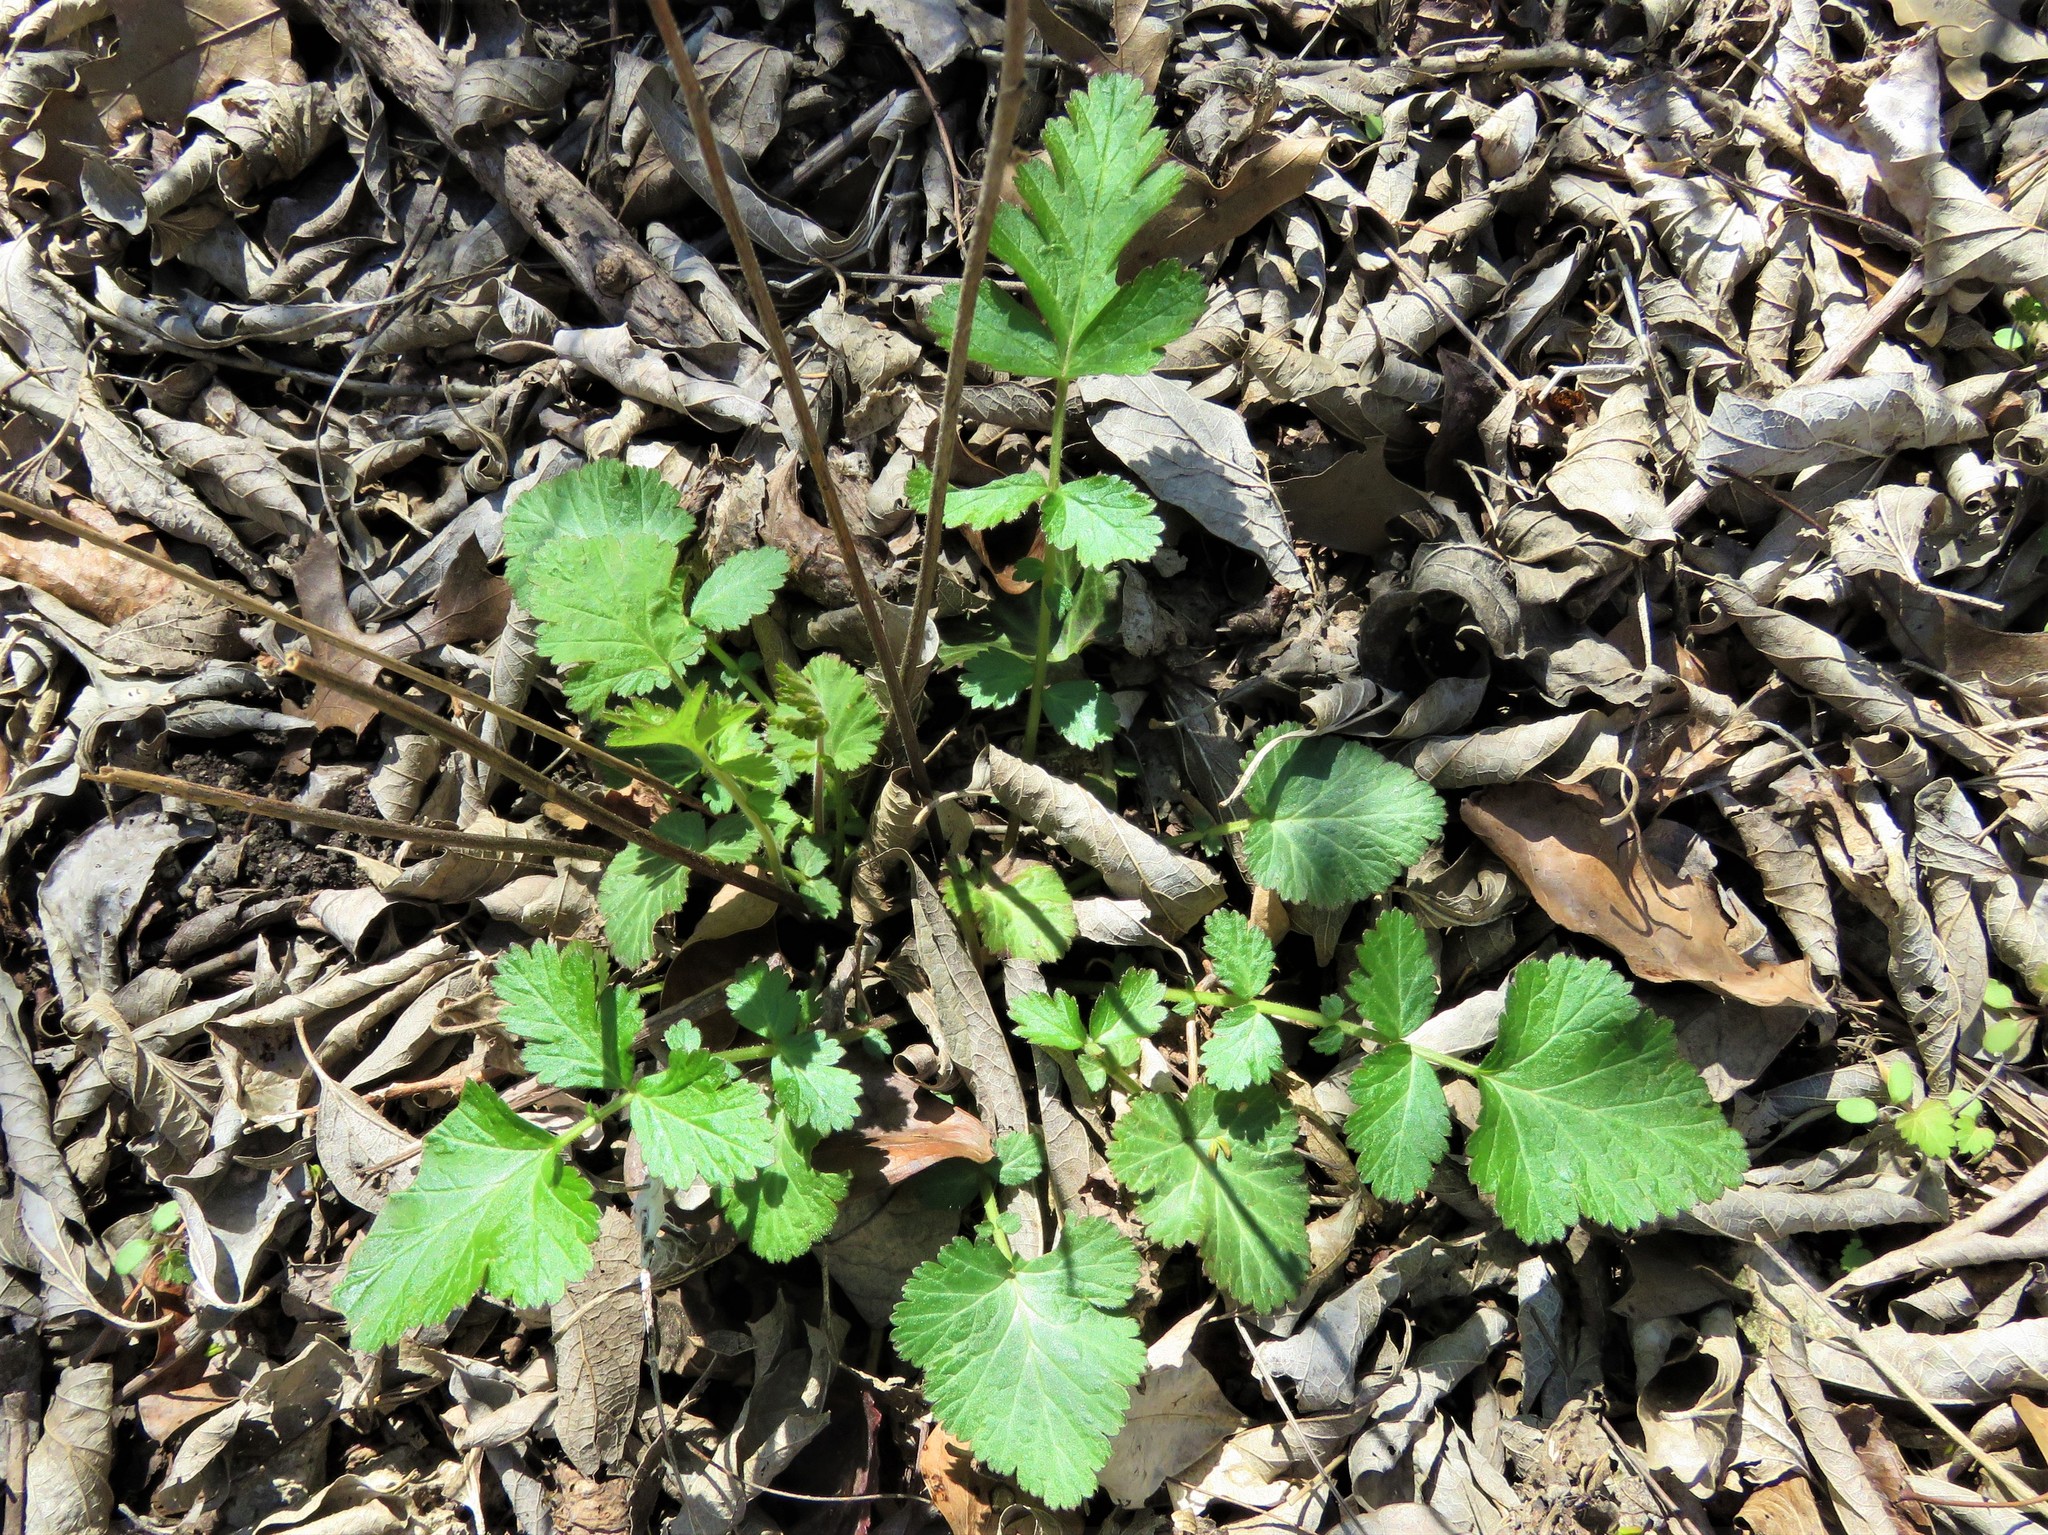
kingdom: Plantae
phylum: Tracheophyta
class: Magnoliopsida
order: Rosales
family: Rosaceae
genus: Geum
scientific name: Geum canadense
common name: White avens
